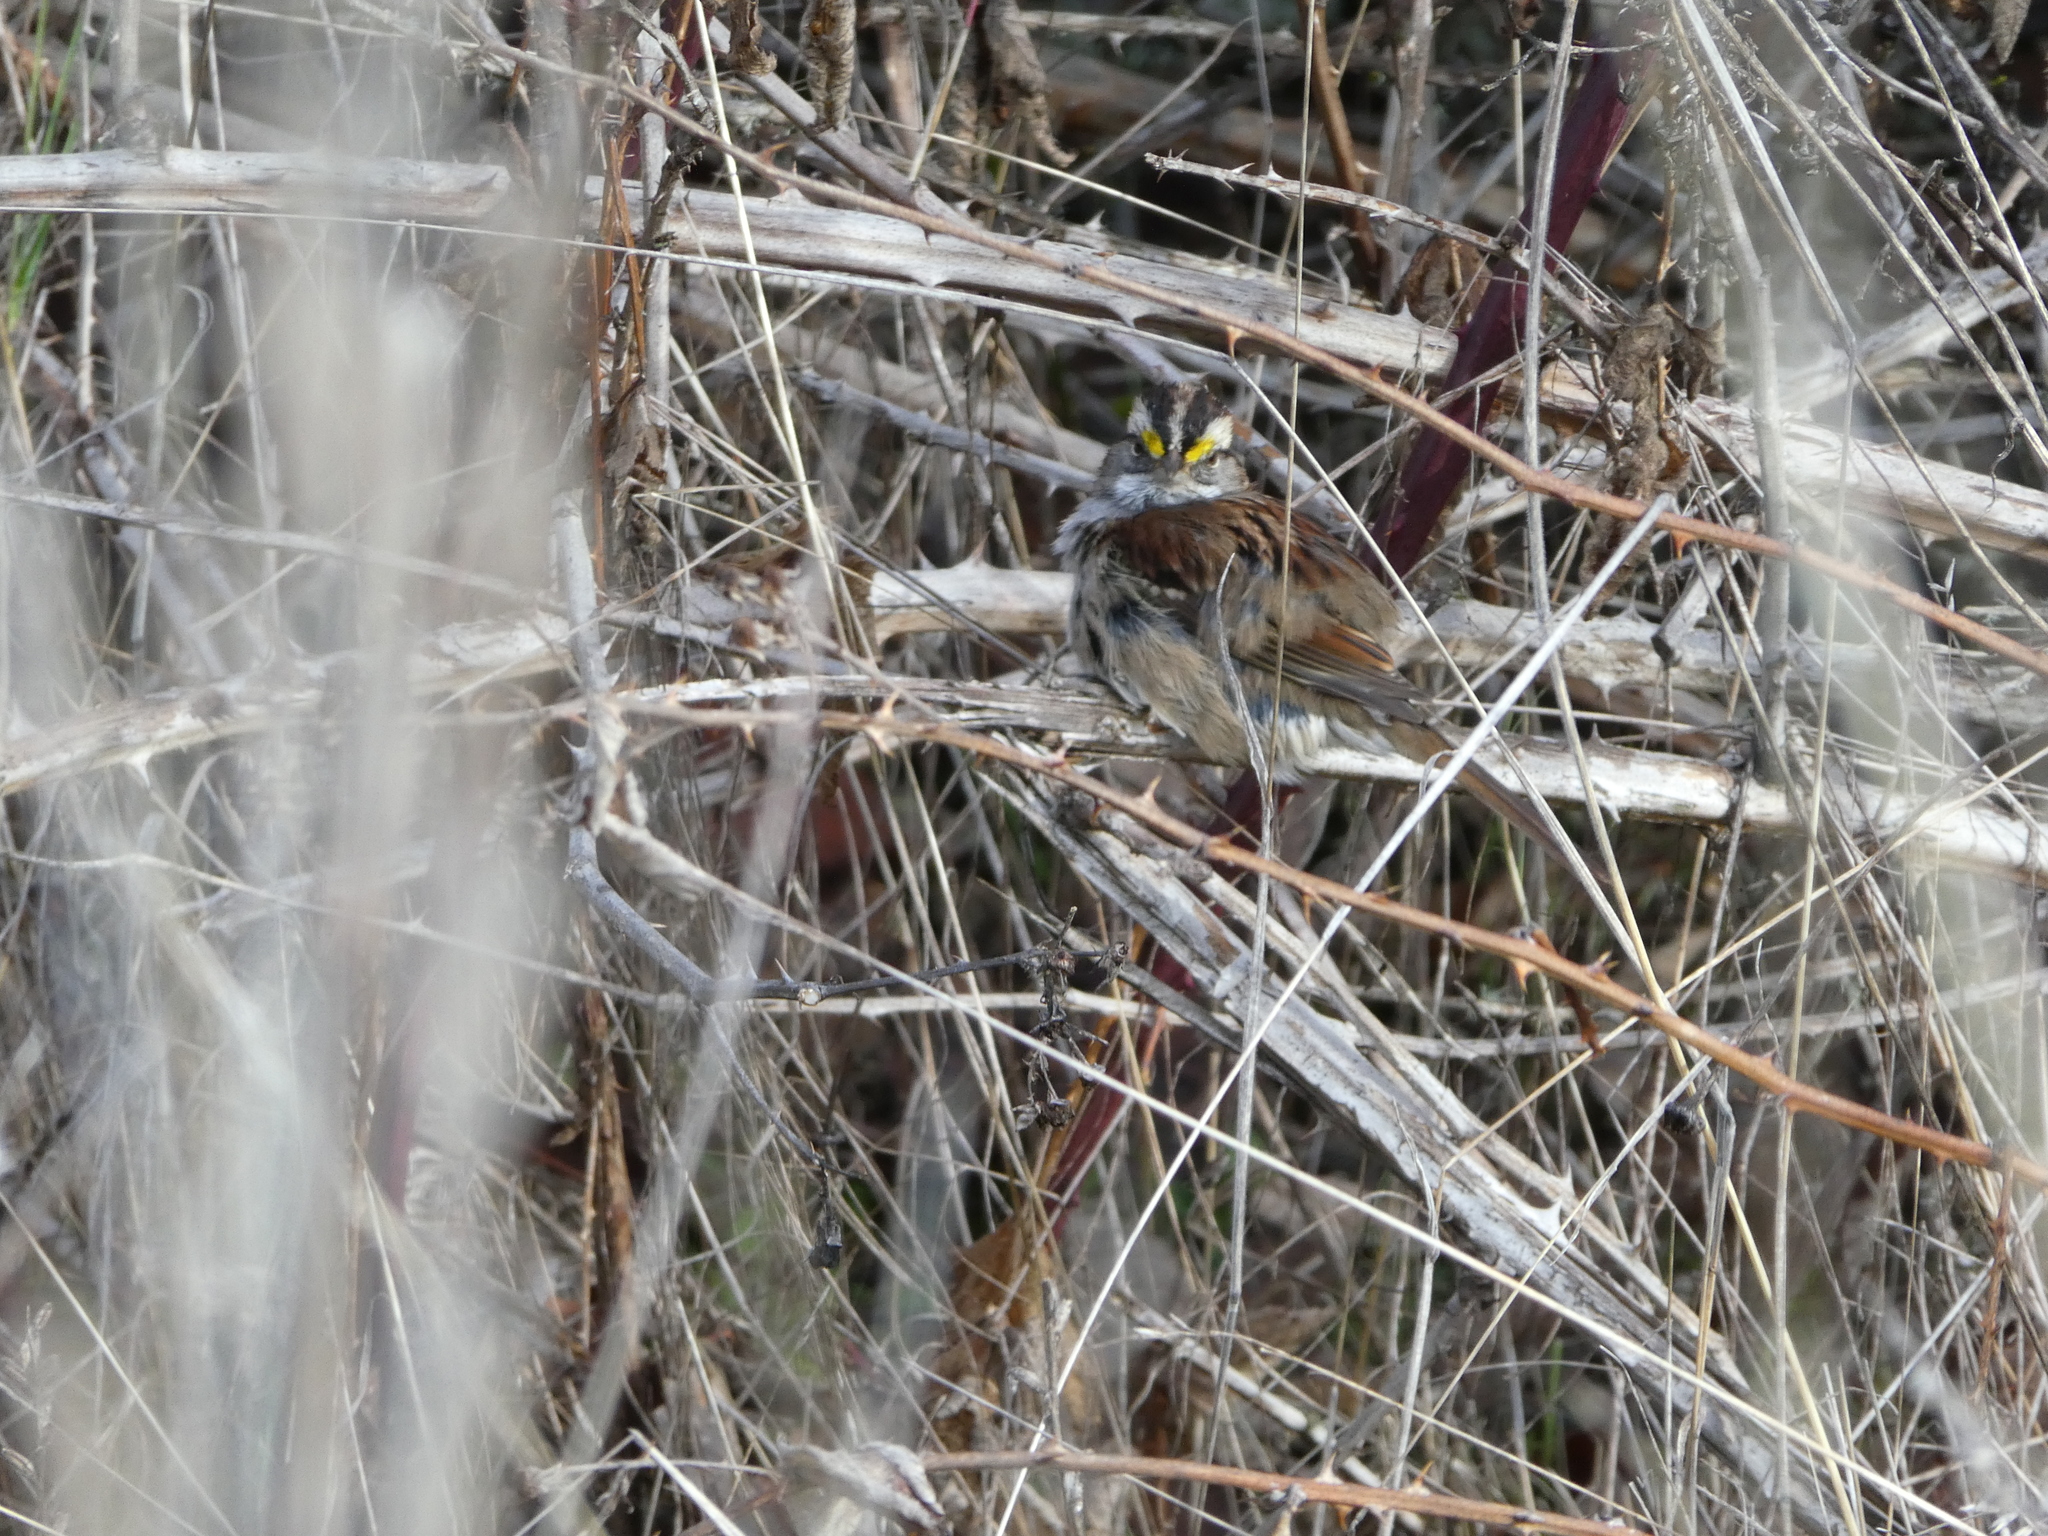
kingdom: Animalia
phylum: Chordata
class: Aves
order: Passeriformes
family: Passerellidae
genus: Zonotrichia
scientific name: Zonotrichia albicollis
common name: White-throated sparrow
